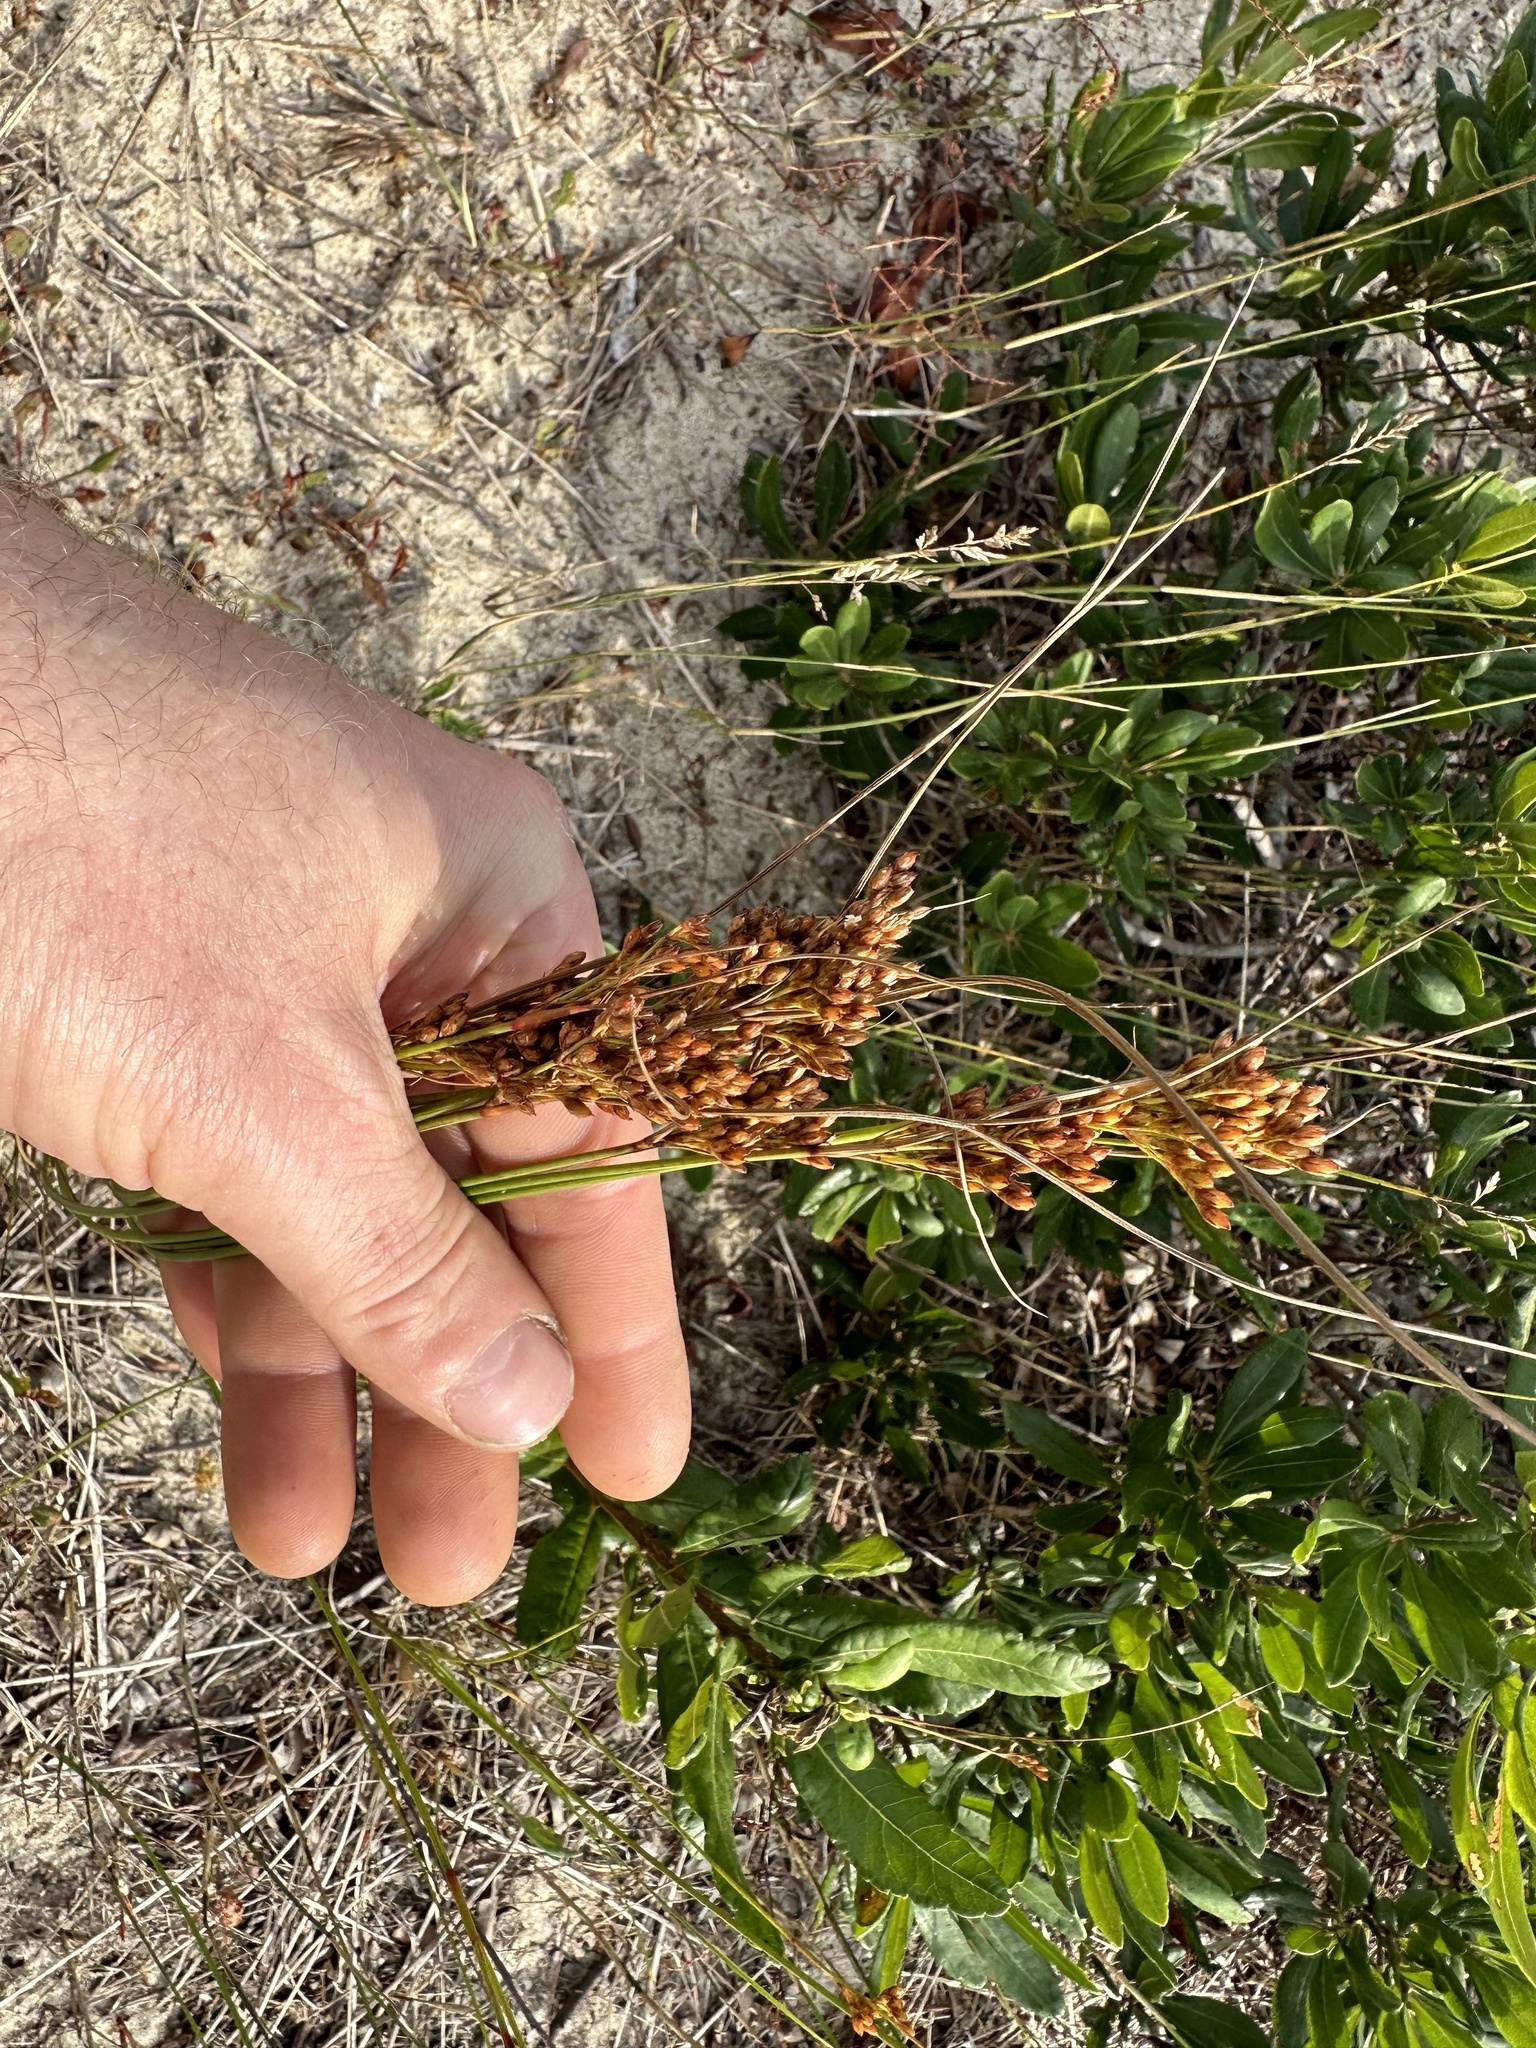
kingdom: Plantae
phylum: Tracheophyta
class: Liliopsida
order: Poales
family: Juncaceae
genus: Juncus
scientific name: Juncus greenei
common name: Greene's rush
